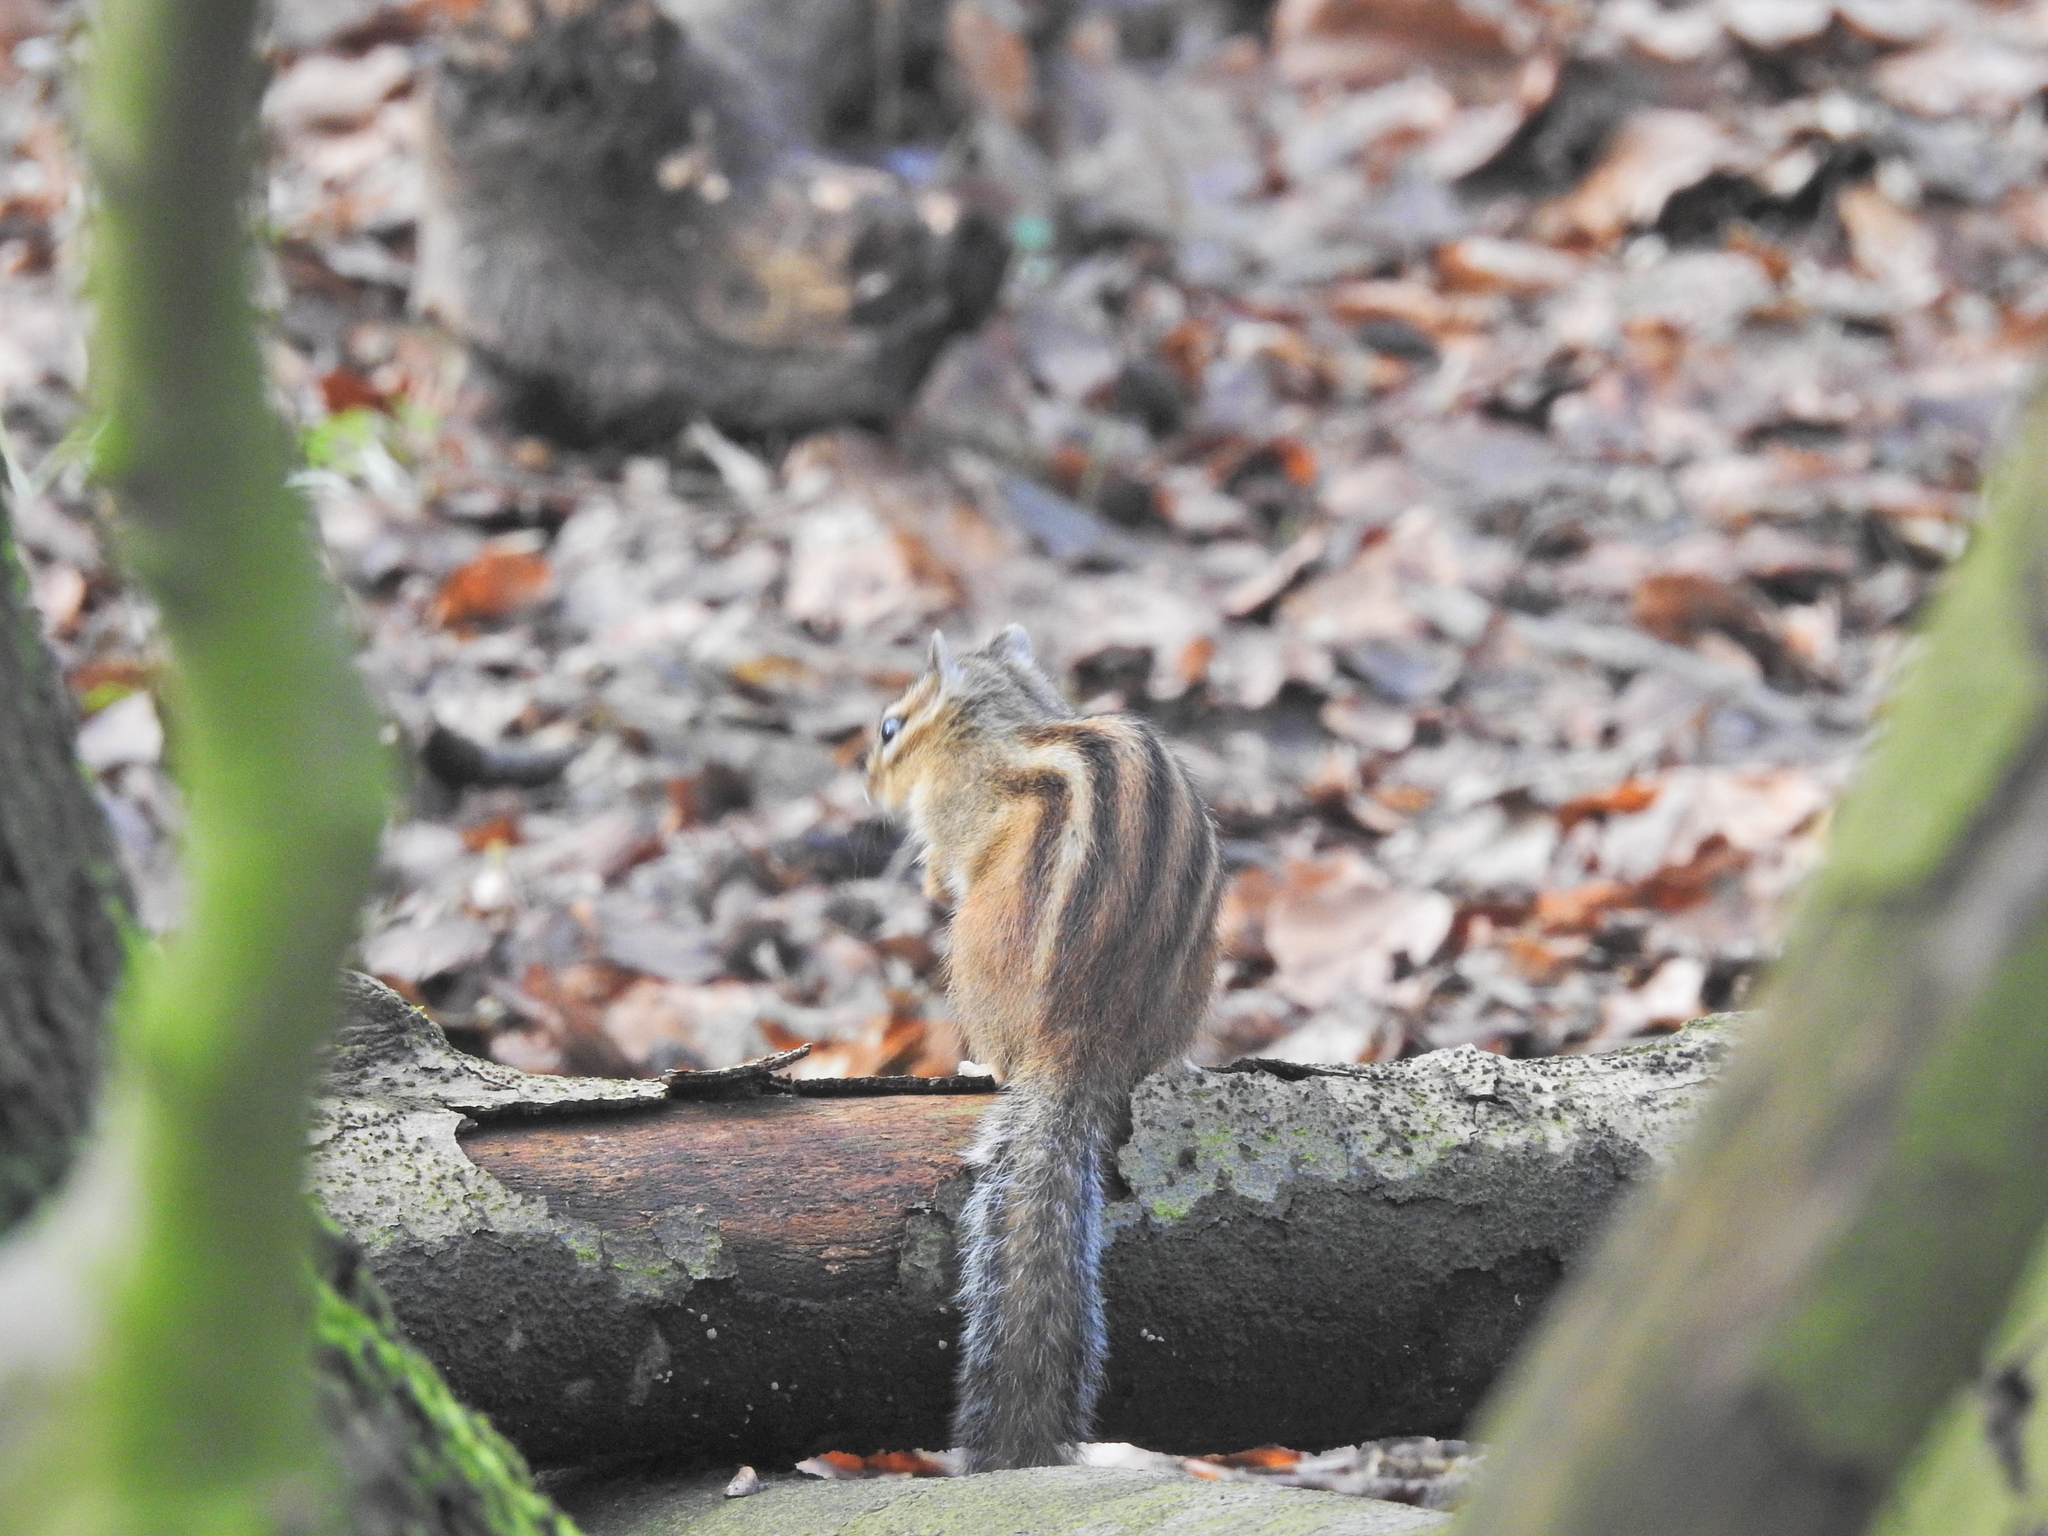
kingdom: Animalia
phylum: Chordata
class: Mammalia
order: Rodentia
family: Sciuridae
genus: Tamias
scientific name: Tamias sibiricus
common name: Siberian chipmunk
